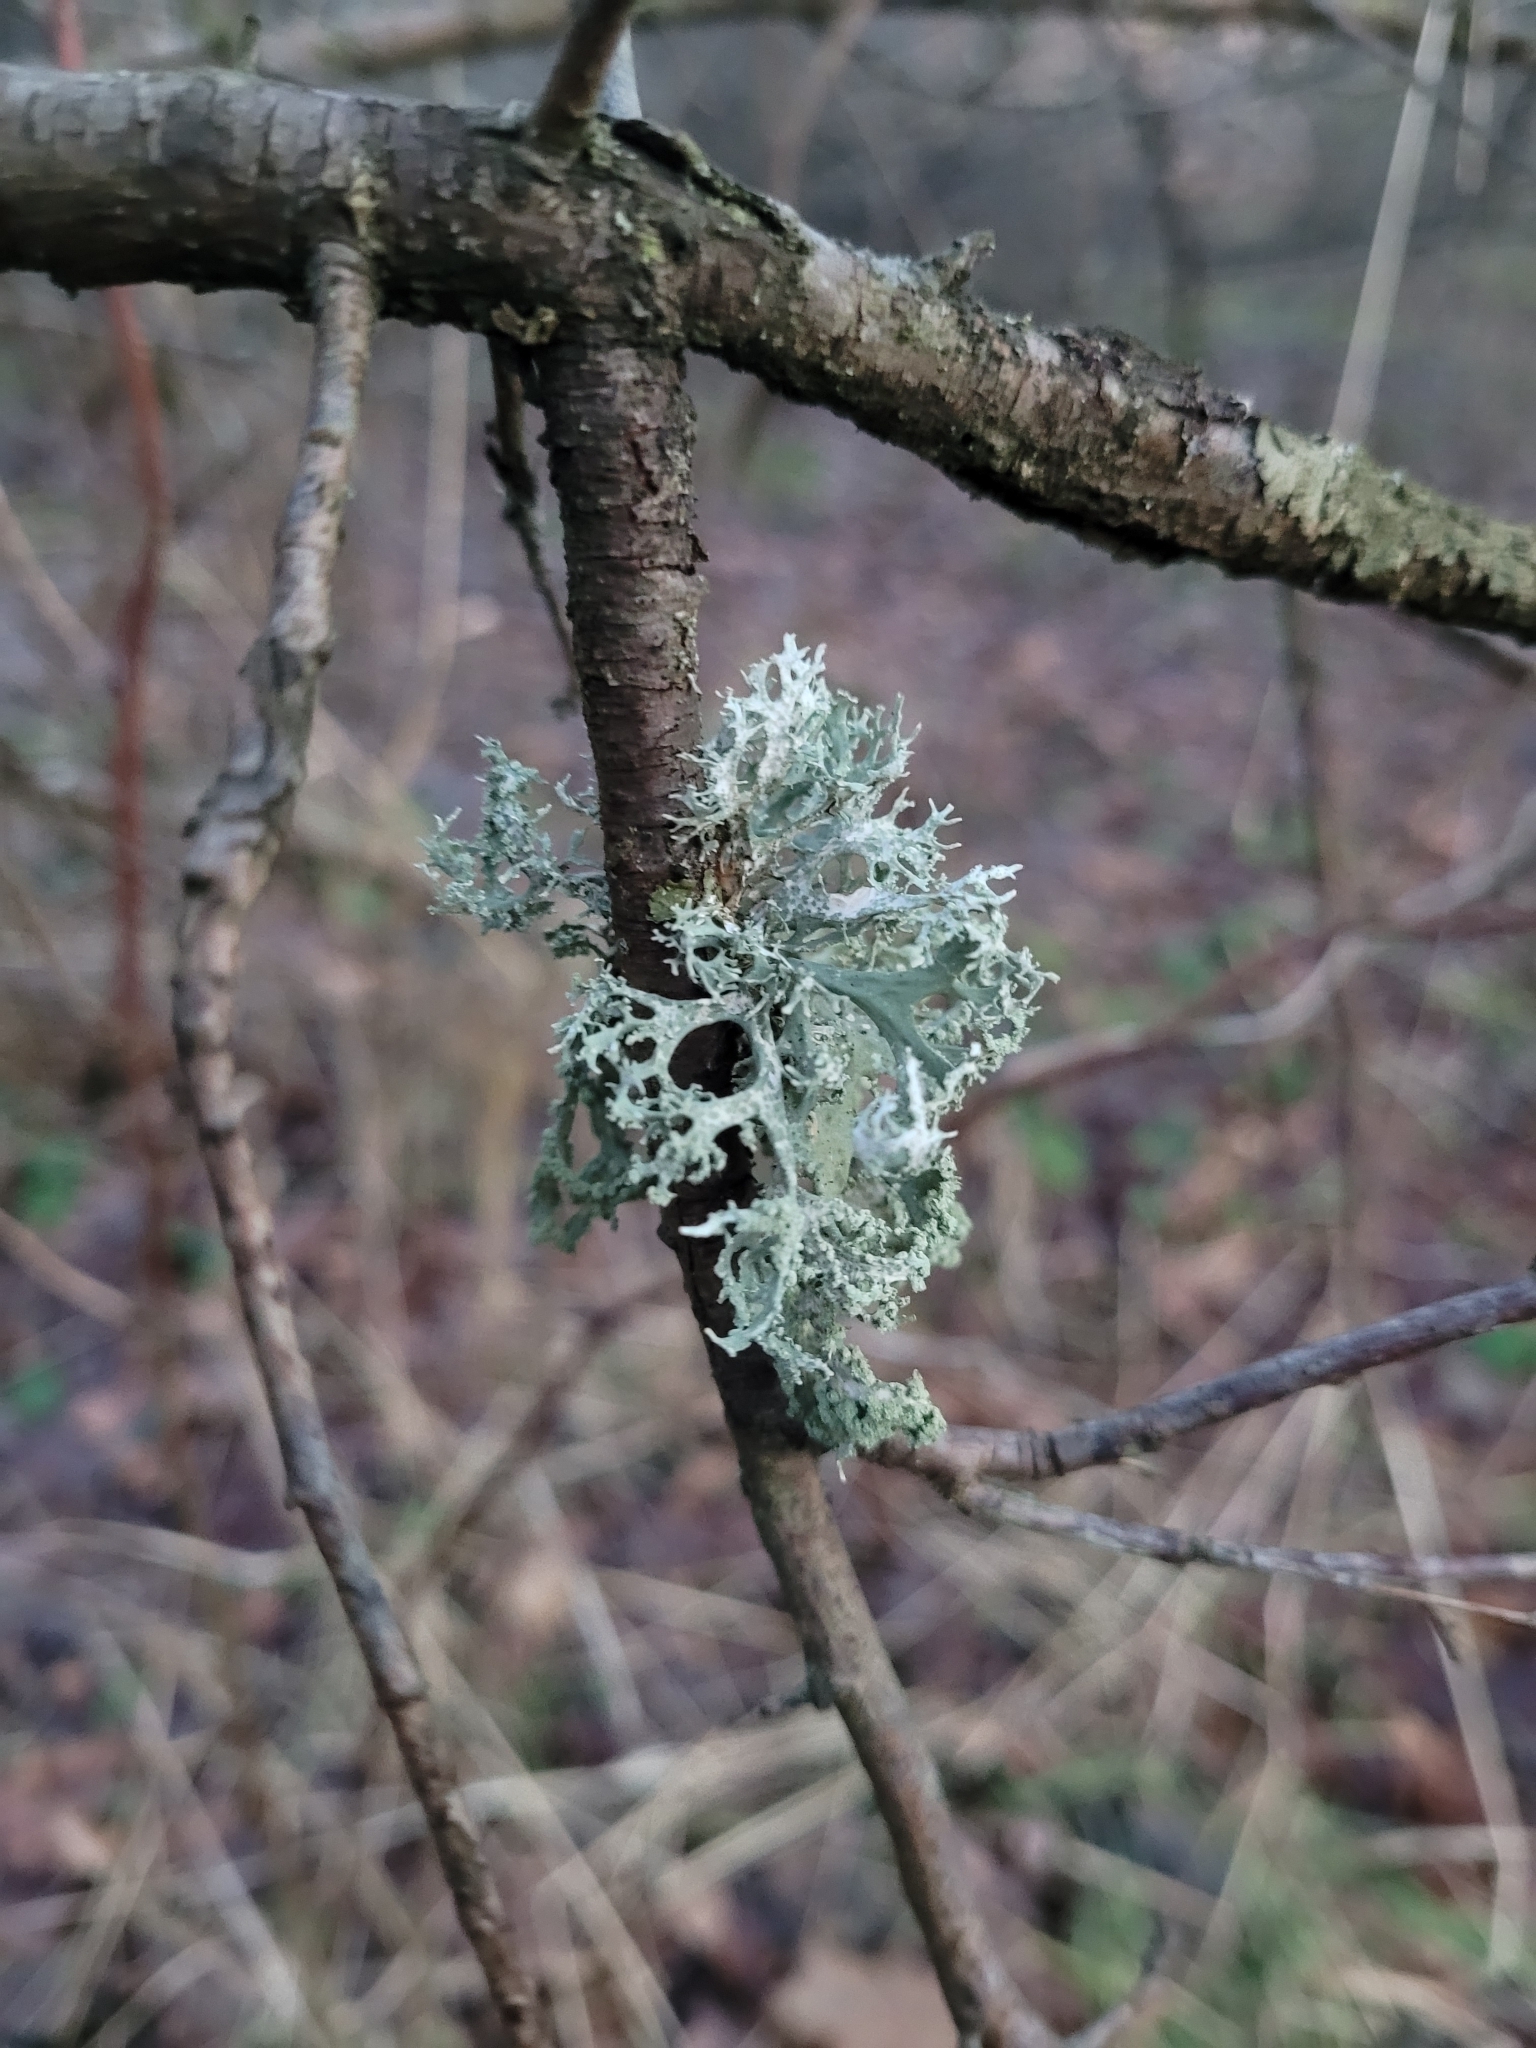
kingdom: Fungi
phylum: Ascomycota
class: Lecanoromycetes
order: Lecanorales
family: Parmeliaceae
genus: Evernia
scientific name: Evernia prunastri
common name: Oak moss
